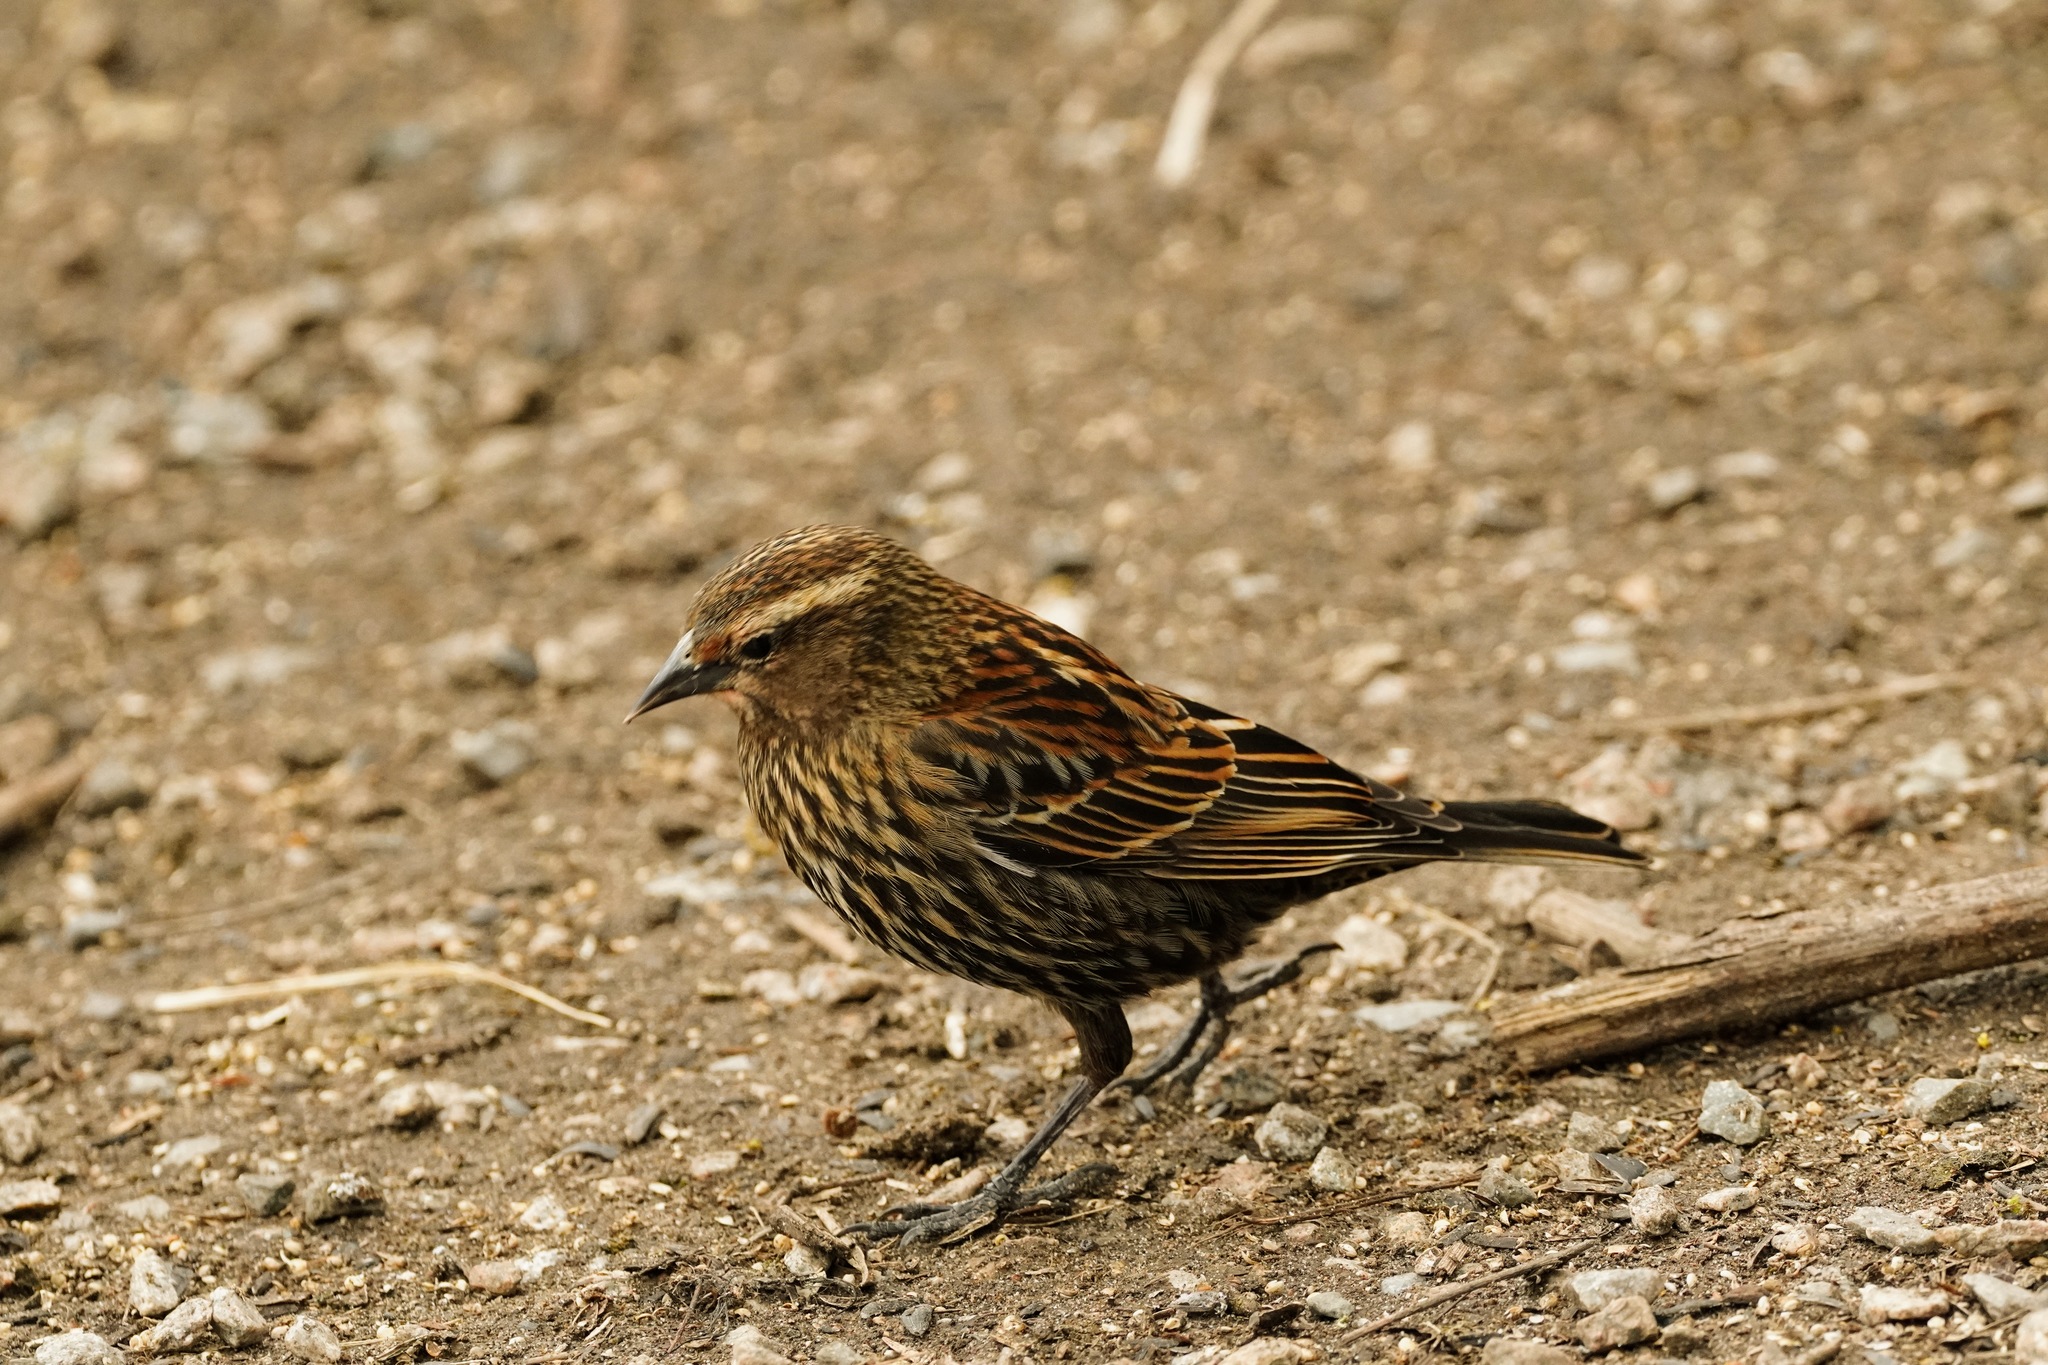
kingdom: Animalia
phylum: Chordata
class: Aves
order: Passeriformes
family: Icteridae
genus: Agelaius
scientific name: Agelaius phoeniceus
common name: Red-winged blackbird
